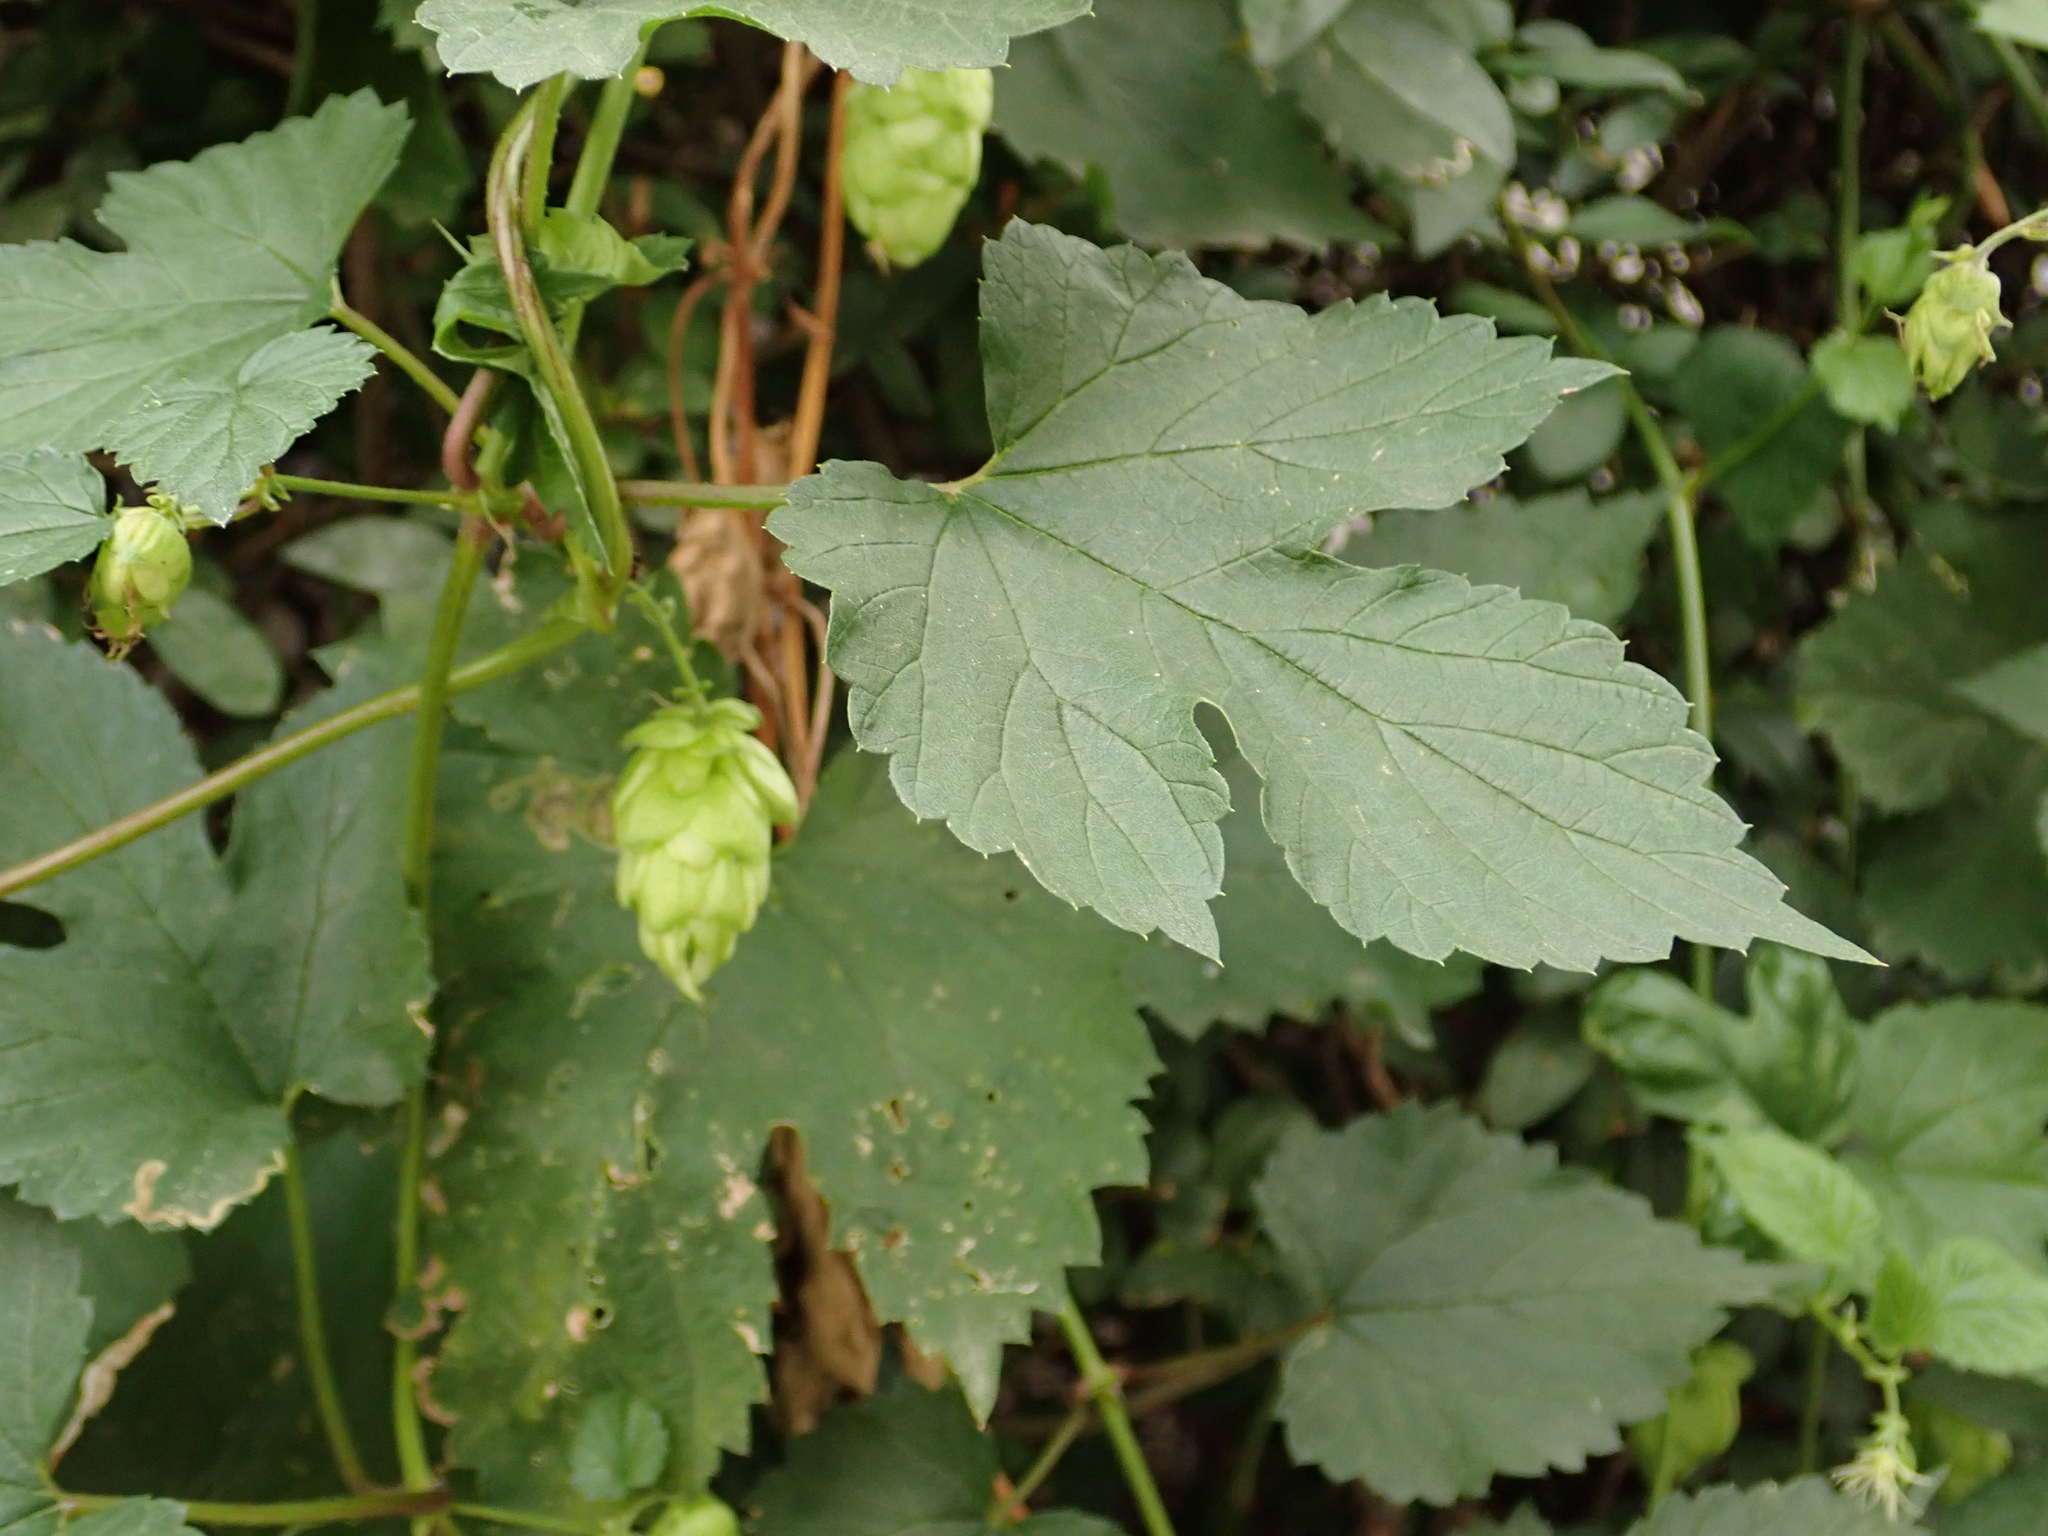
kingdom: Plantae
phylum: Tracheophyta
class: Magnoliopsida
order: Rosales
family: Cannabaceae
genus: Humulus
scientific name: Humulus lupulus
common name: Hop
